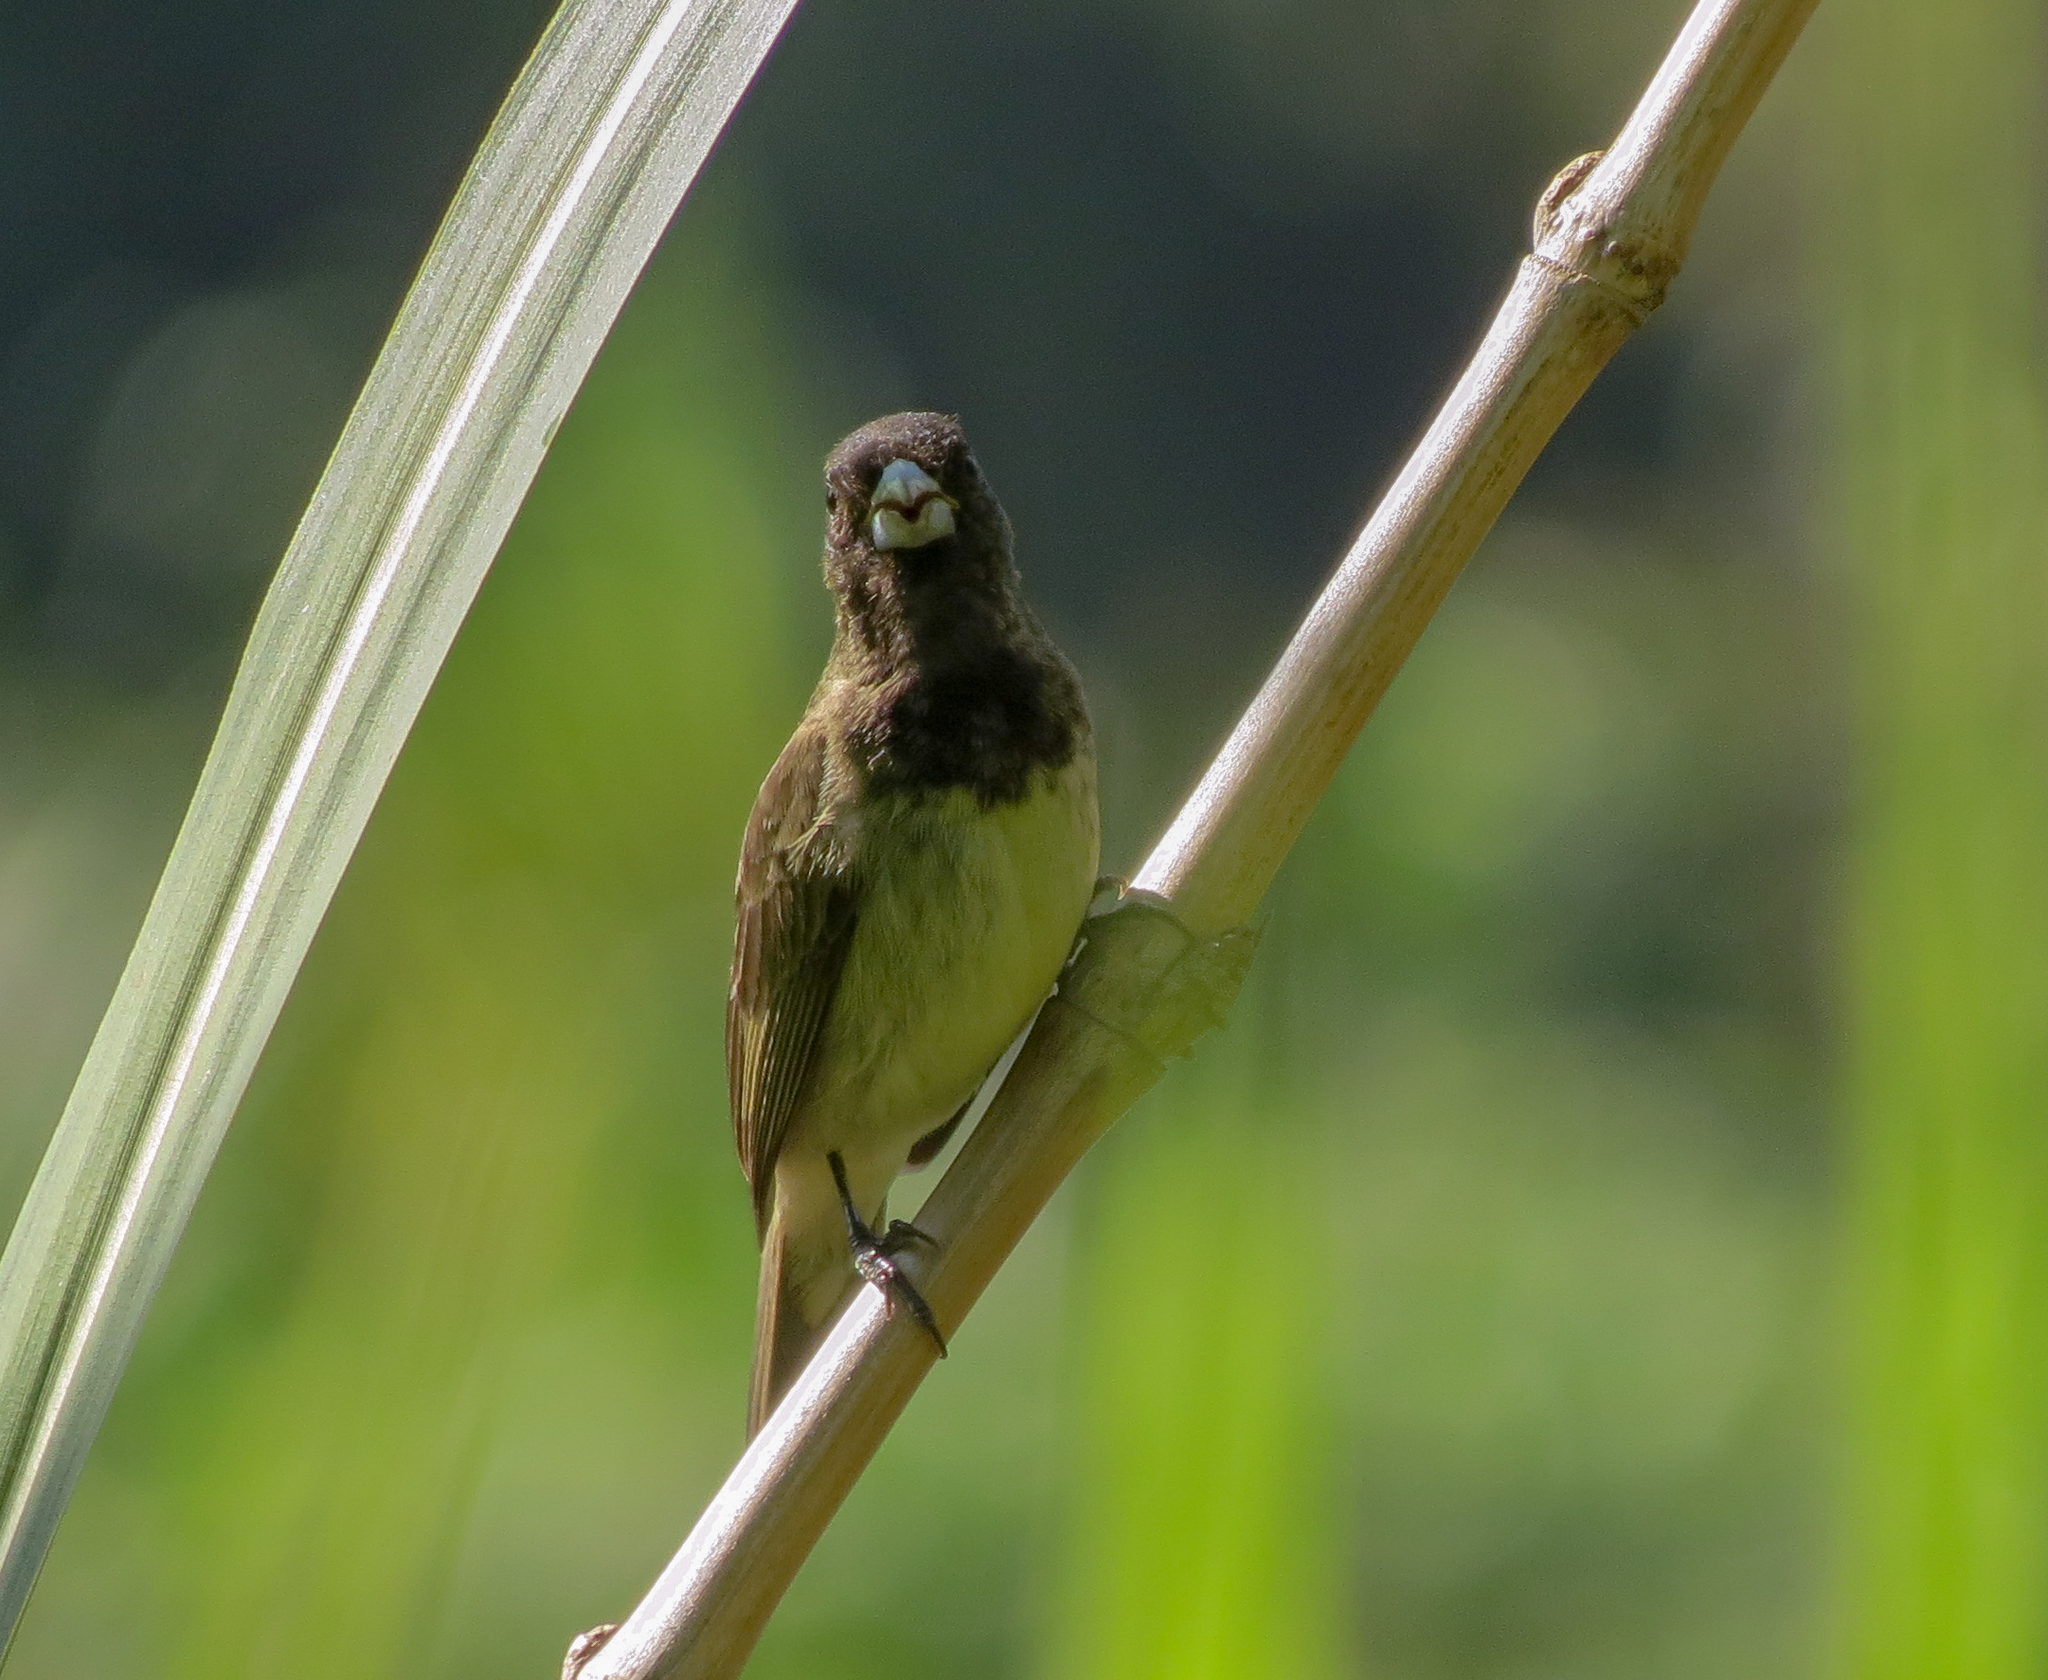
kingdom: Animalia
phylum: Chordata
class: Aves
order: Passeriformes
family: Thraupidae
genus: Sporophila
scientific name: Sporophila nigricollis
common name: Yellow-bellied seedeater
